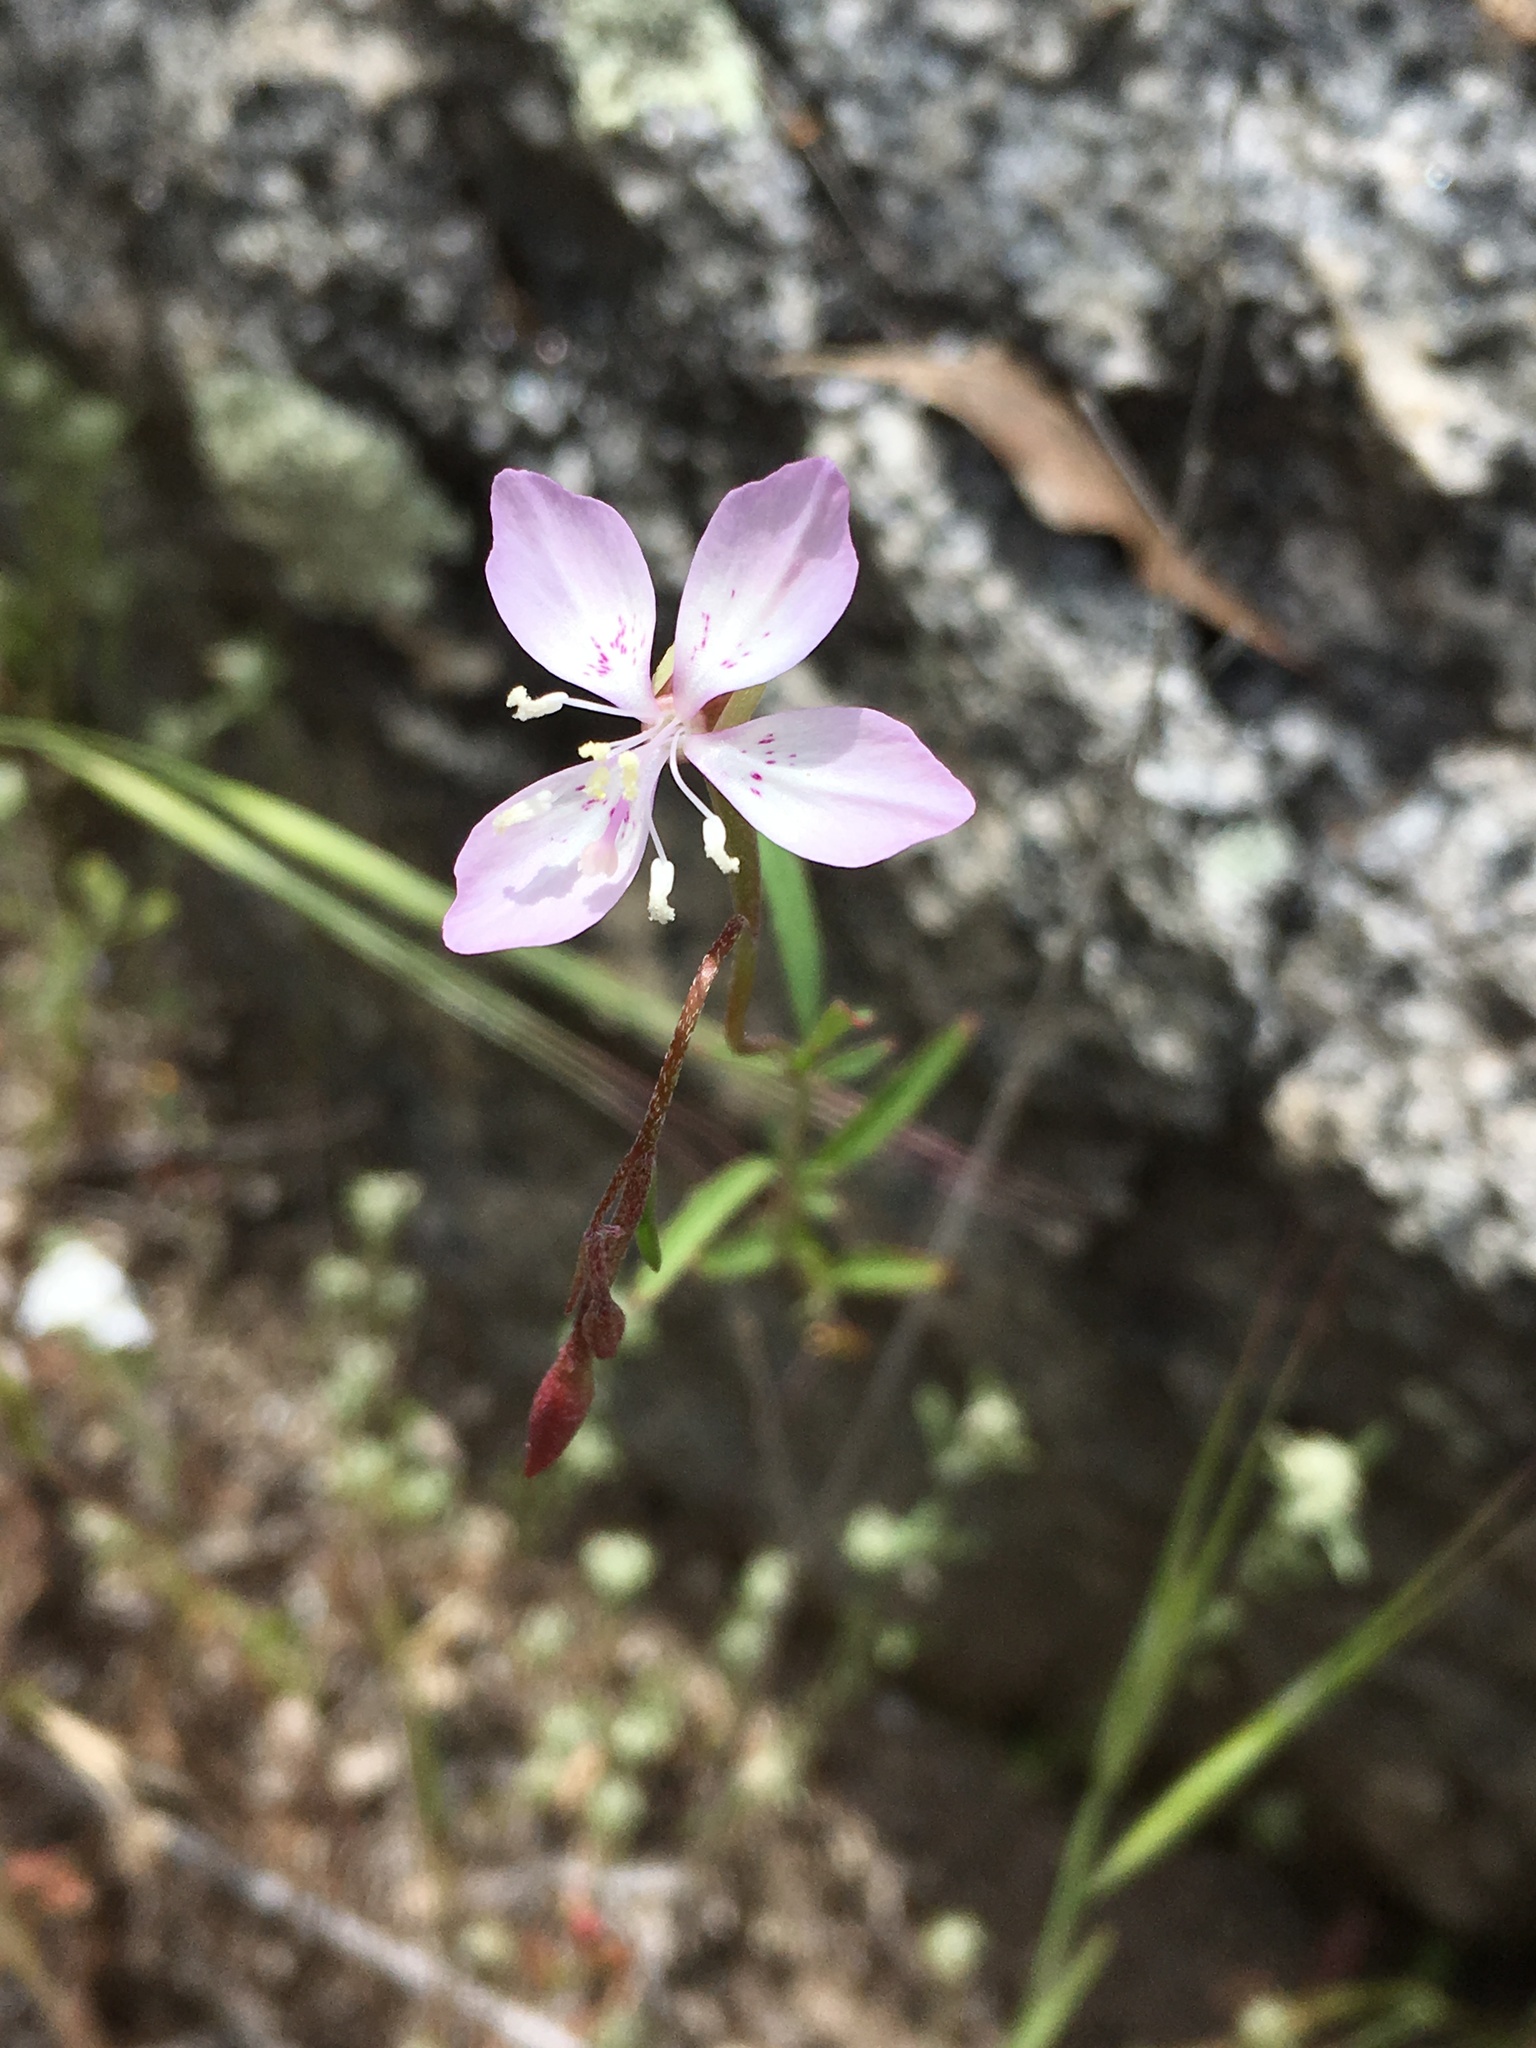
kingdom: Plantae
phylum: Tracheophyta
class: Magnoliopsida
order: Myrtales
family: Onagraceae
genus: Clarkia
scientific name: Clarkia similis
